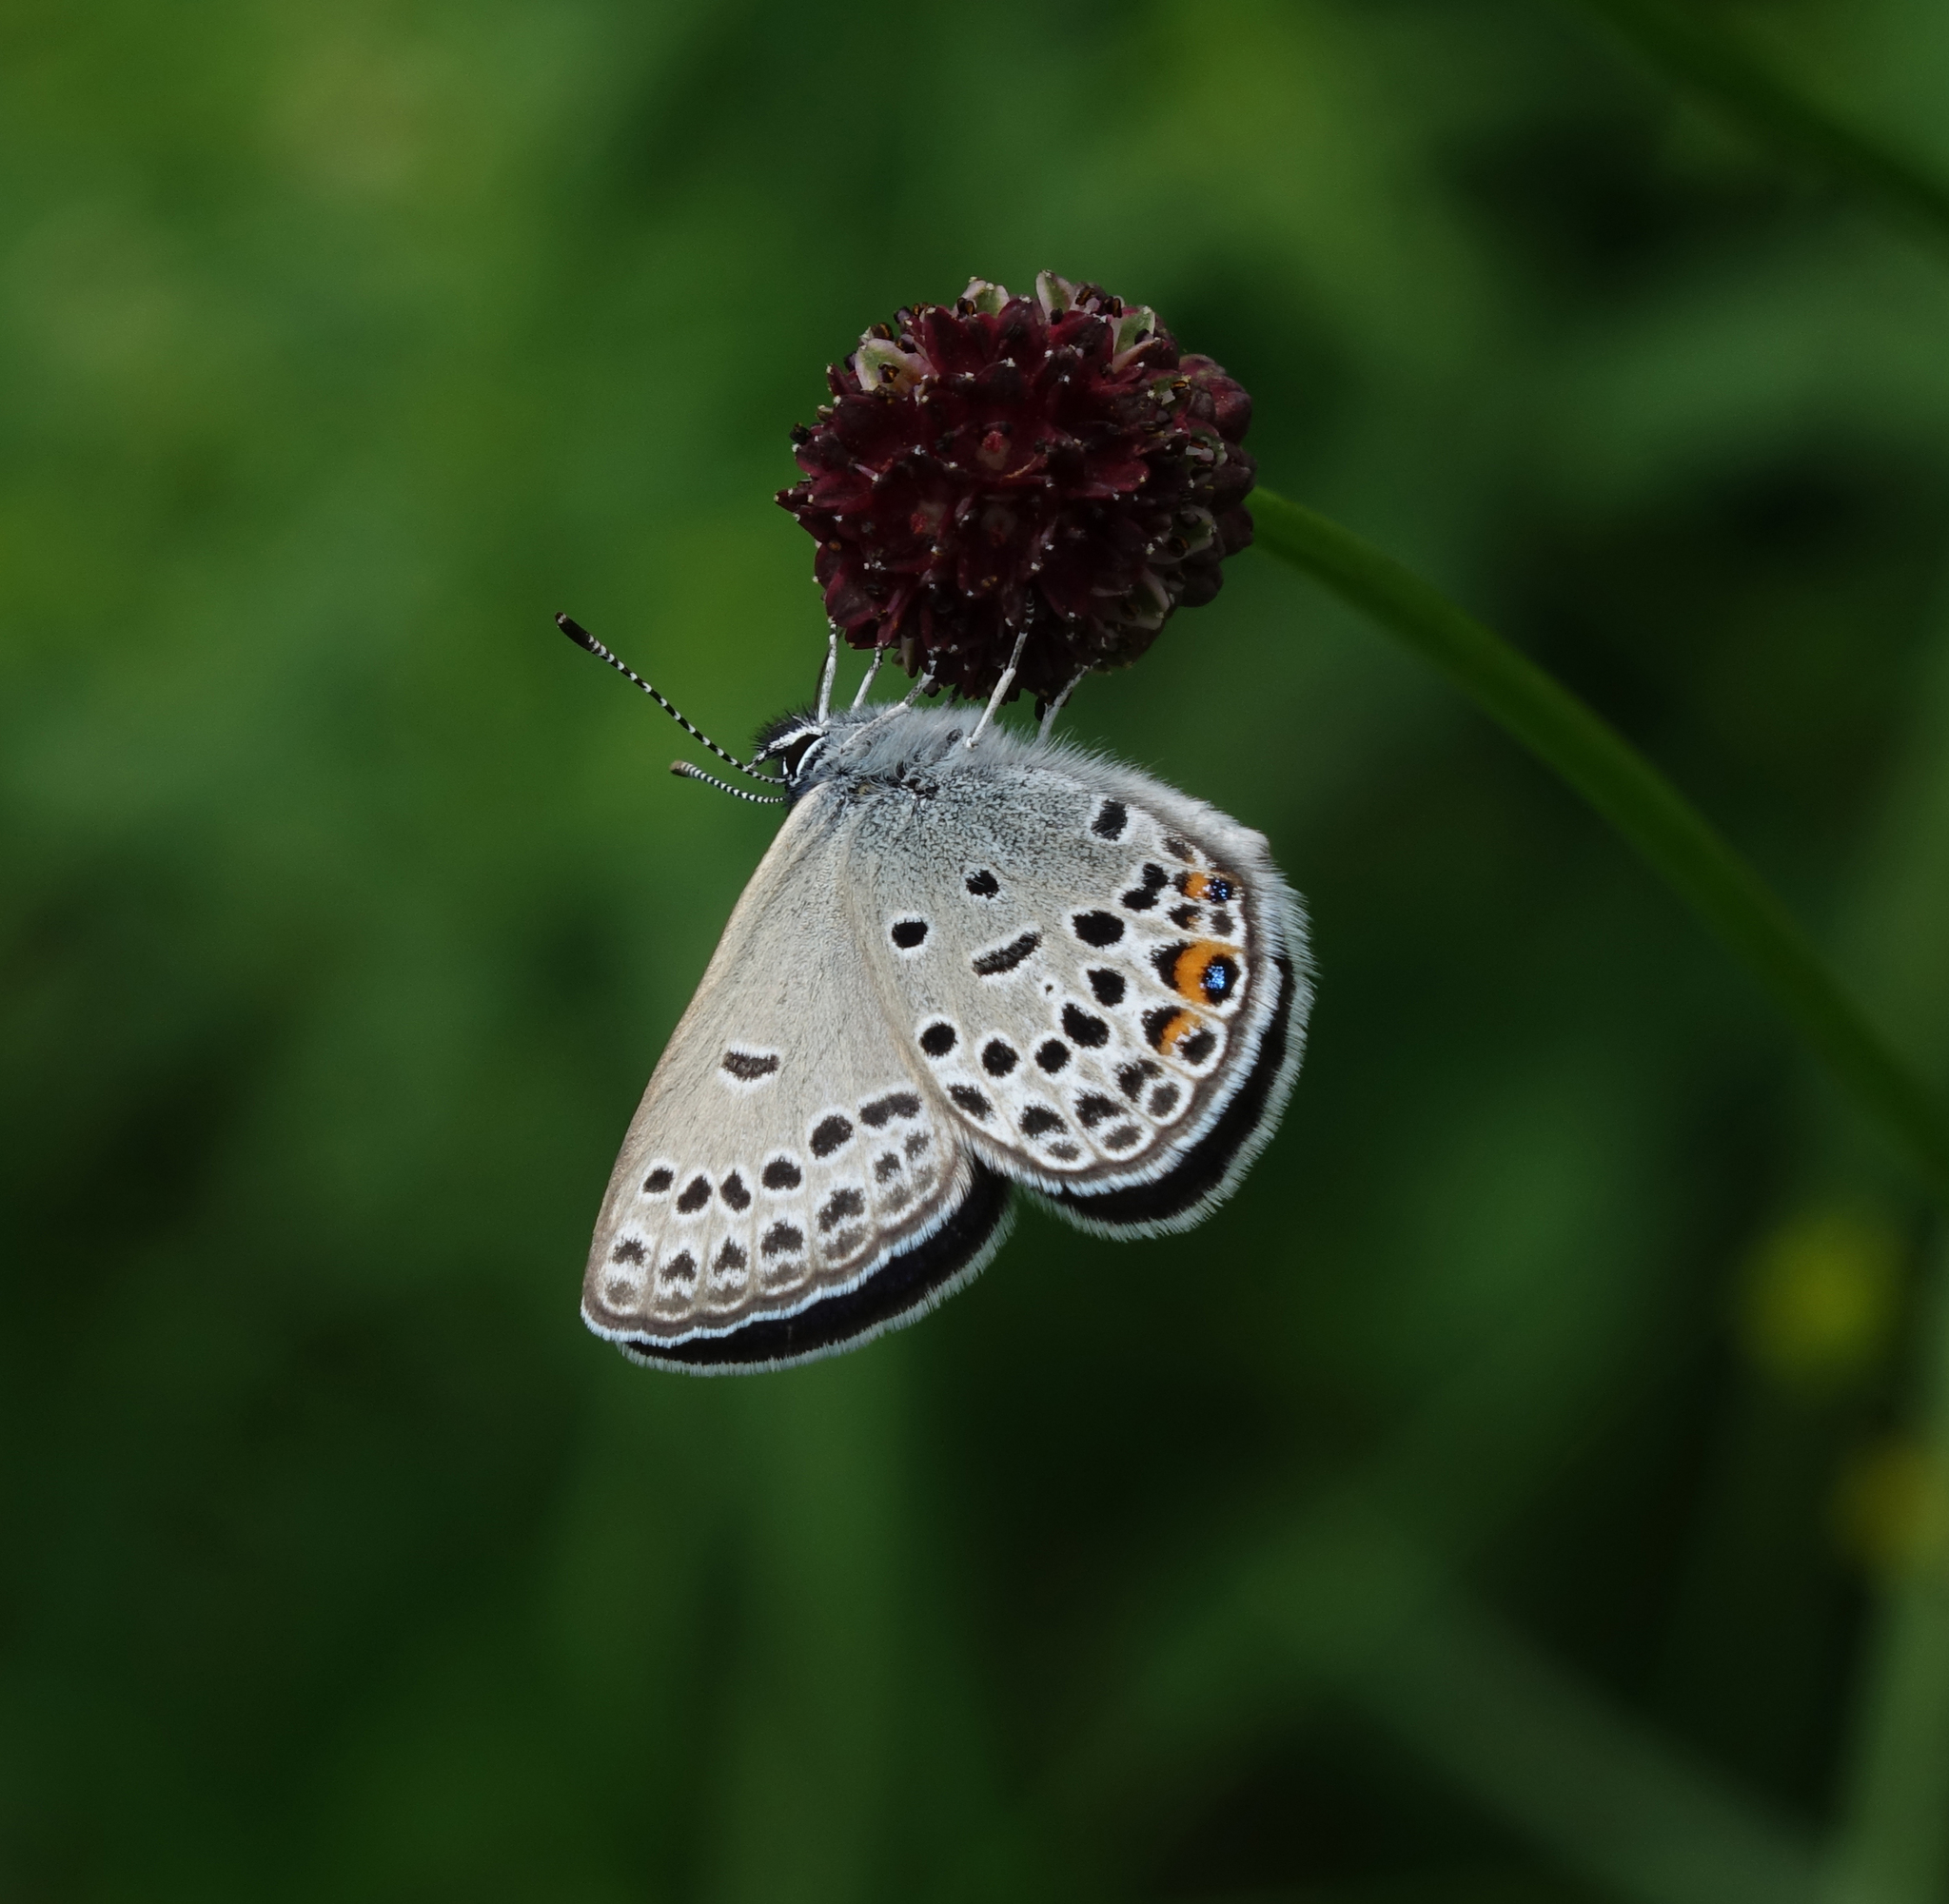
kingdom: Plantae
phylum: Tracheophyta
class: Magnoliopsida
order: Rosales
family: Rosaceae
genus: Sanguisorba
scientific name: Sanguisorba officinalis
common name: Great burnet
